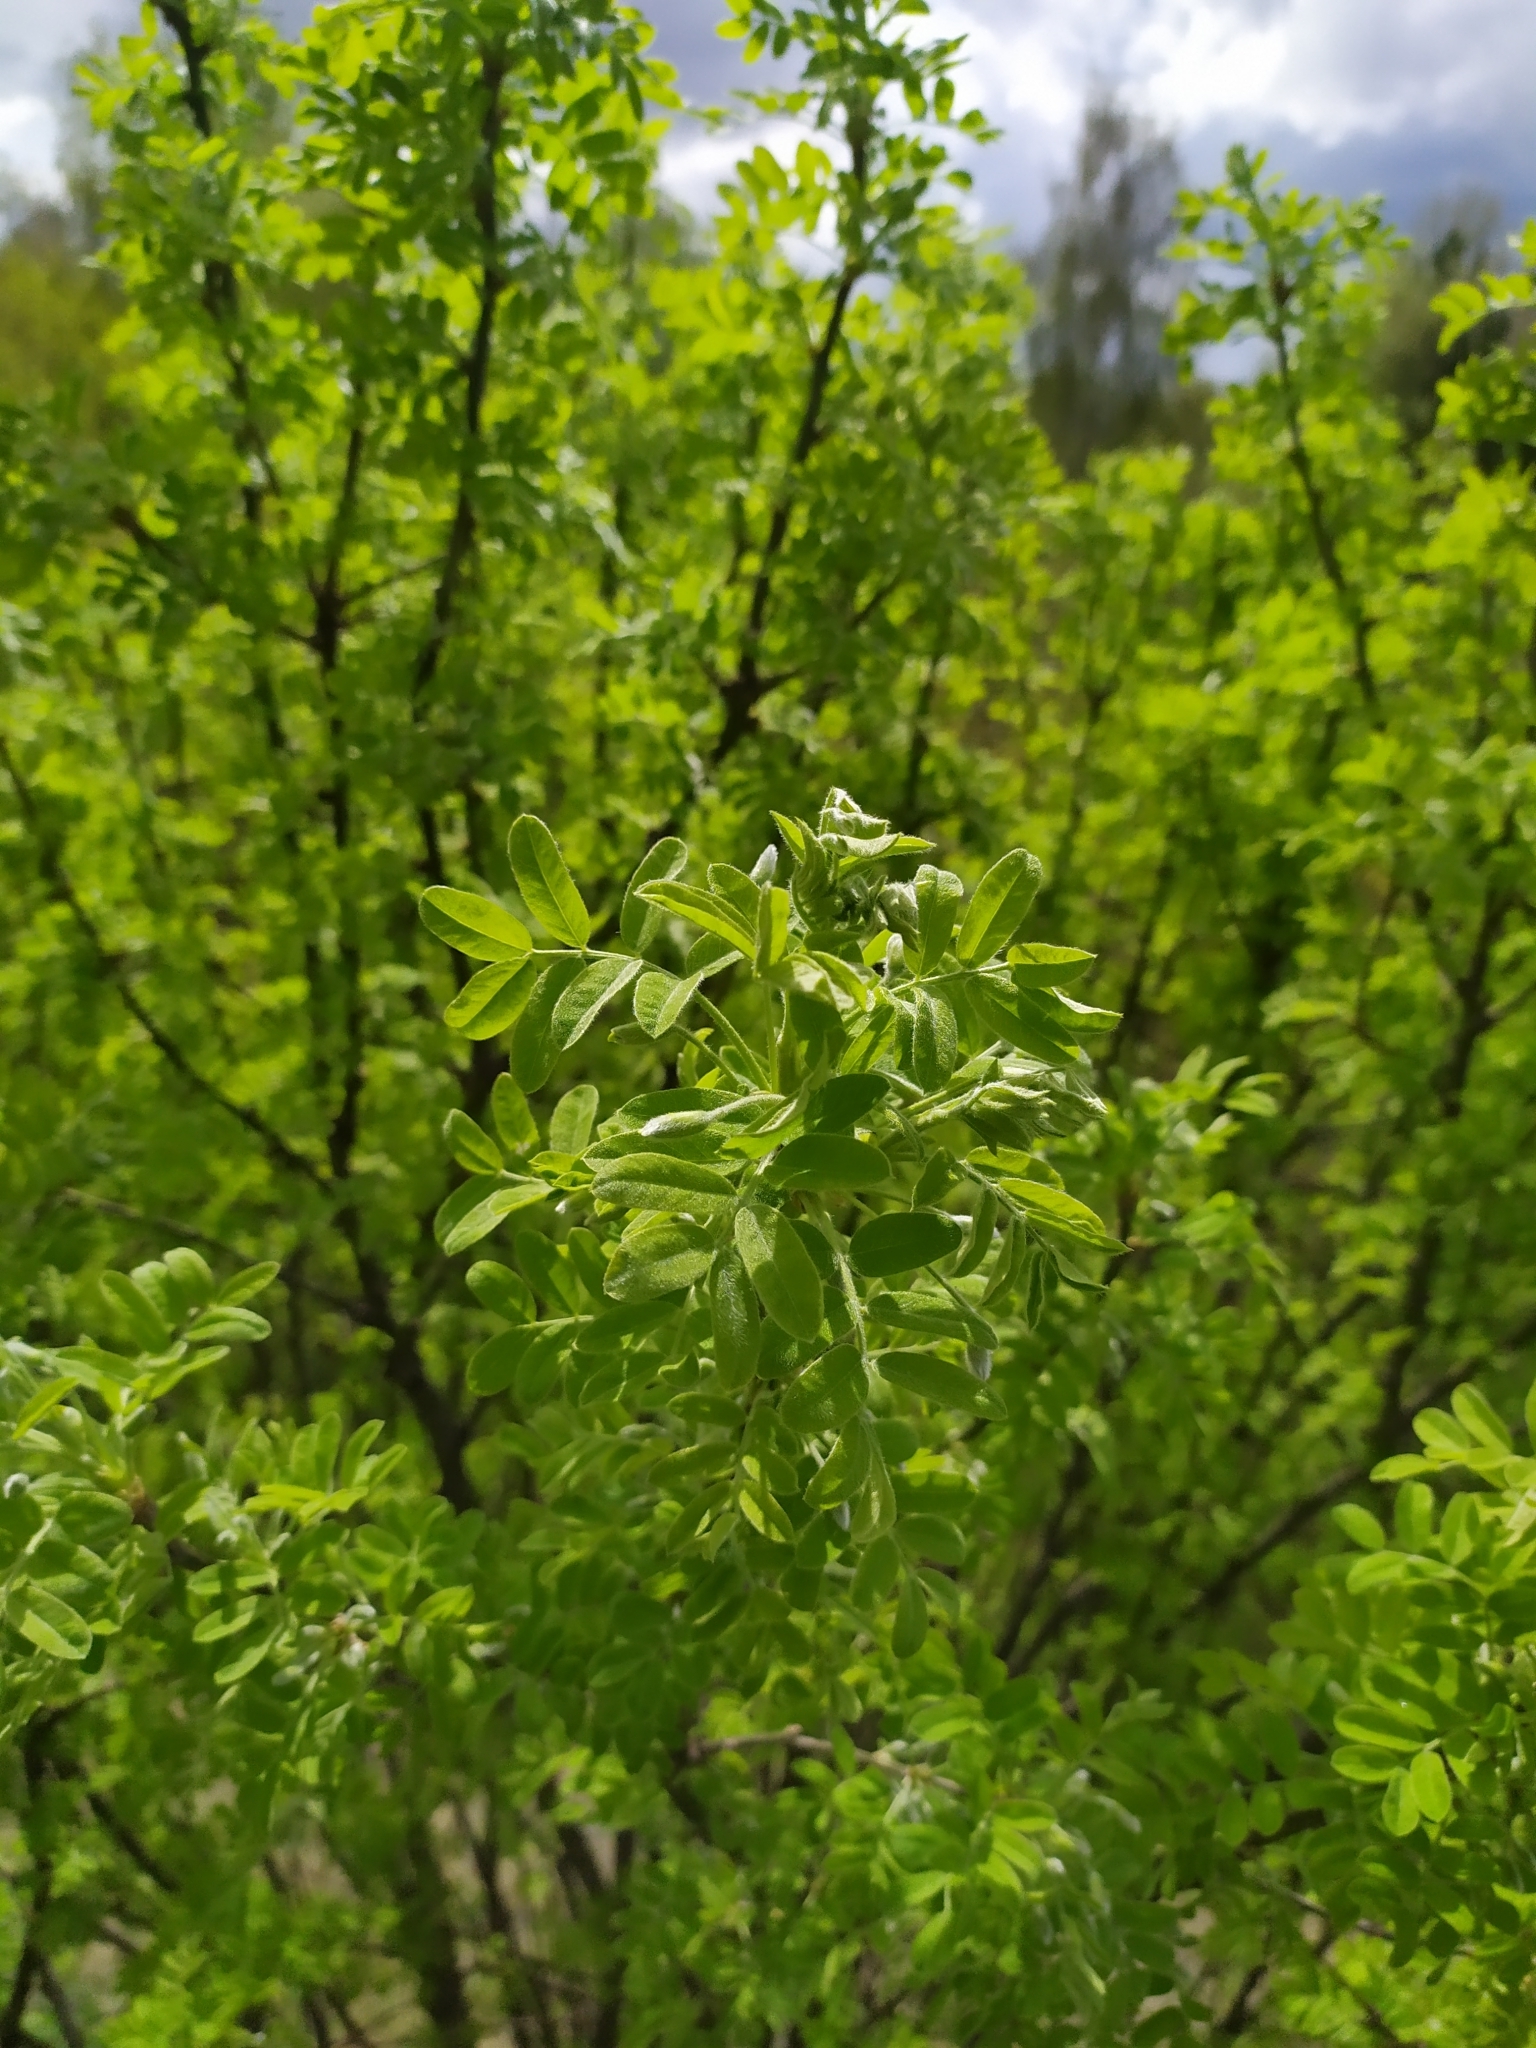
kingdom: Plantae
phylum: Tracheophyta
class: Magnoliopsida
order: Fabales
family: Fabaceae
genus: Caragana
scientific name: Caragana arborescens
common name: Siberian peashrub
